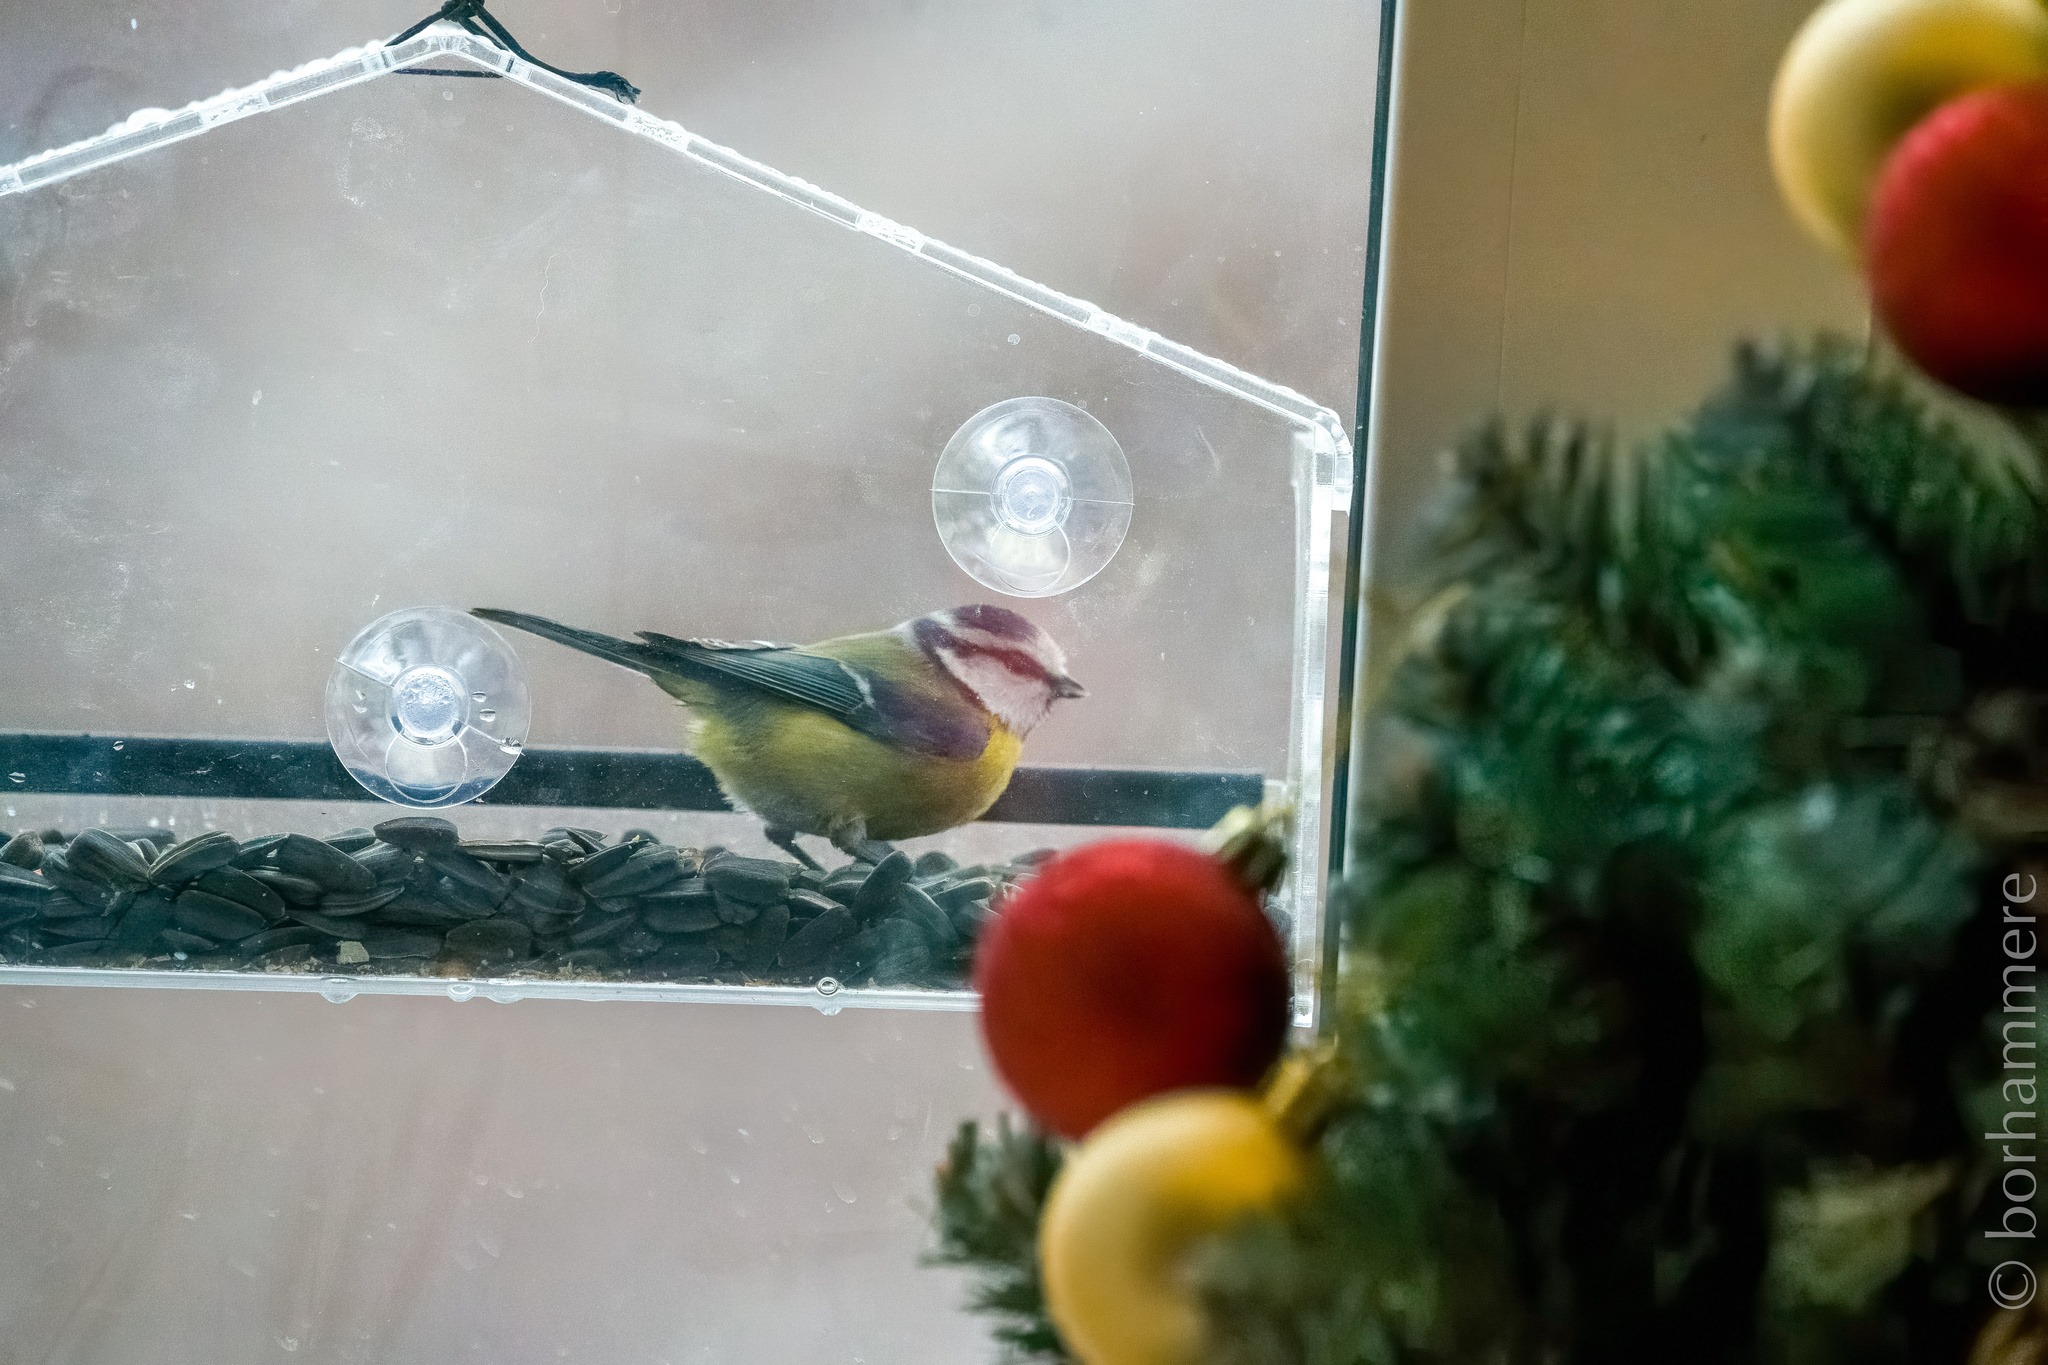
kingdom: Animalia
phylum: Chordata
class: Aves
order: Passeriformes
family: Paridae
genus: Cyanistes
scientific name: Cyanistes caeruleus
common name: Eurasian blue tit
